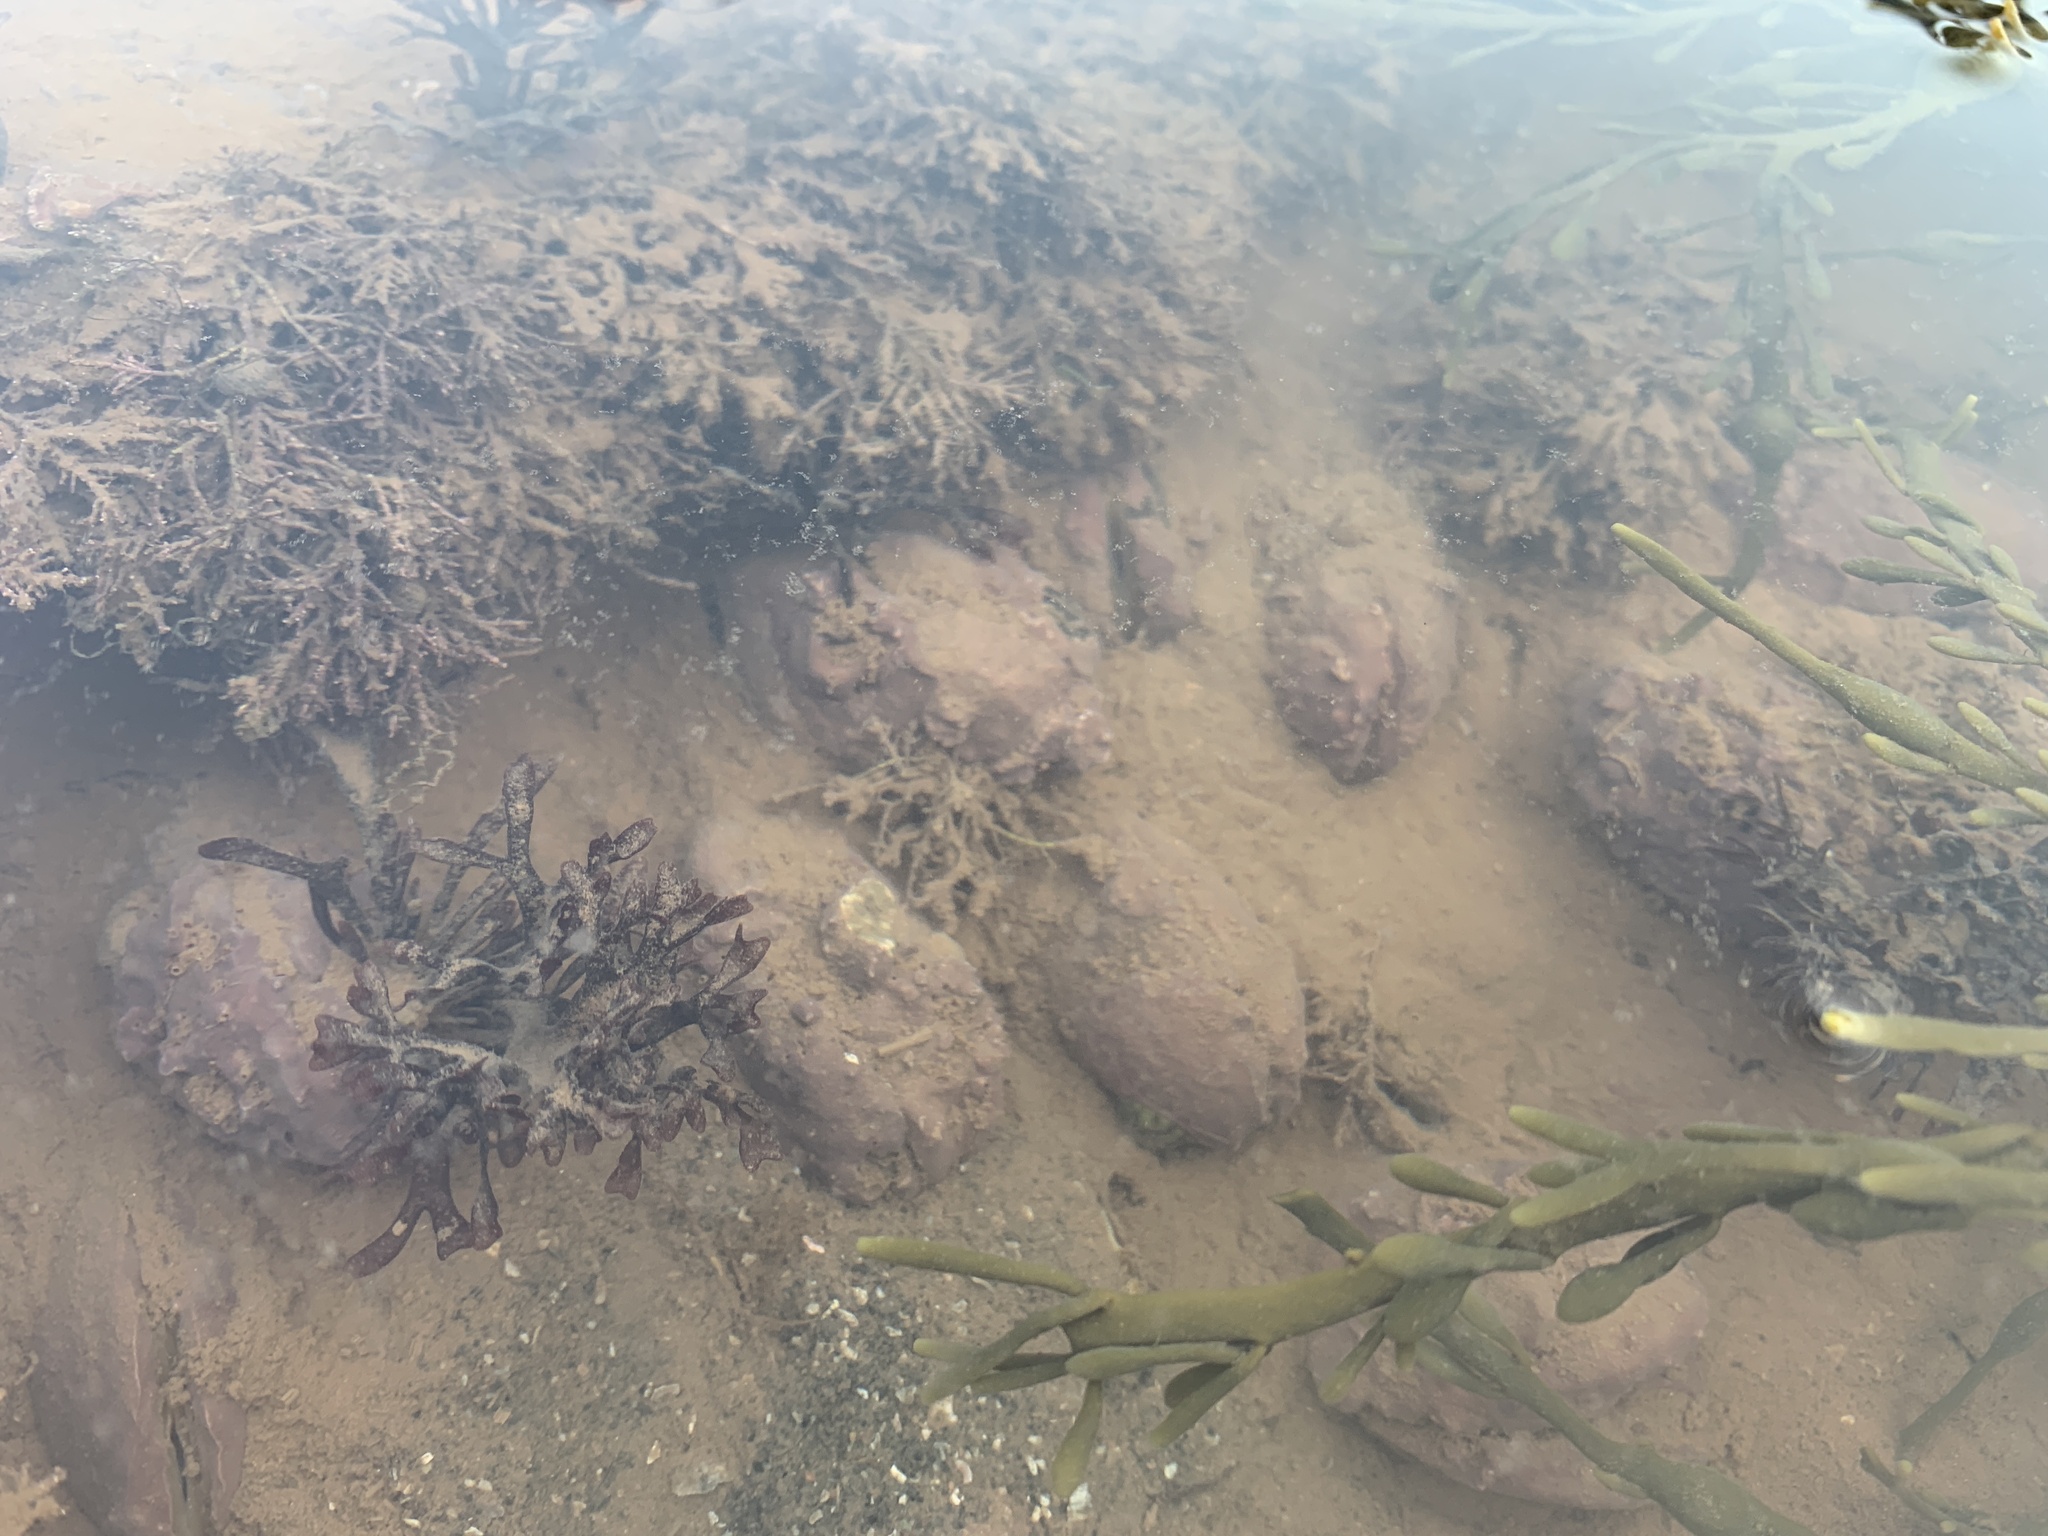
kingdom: Animalia
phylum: Mollusca
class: Bivalvia
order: Mytilida
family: Mytilidae
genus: Modiolus
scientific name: Modiolus modiolus
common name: Horse-mussel
